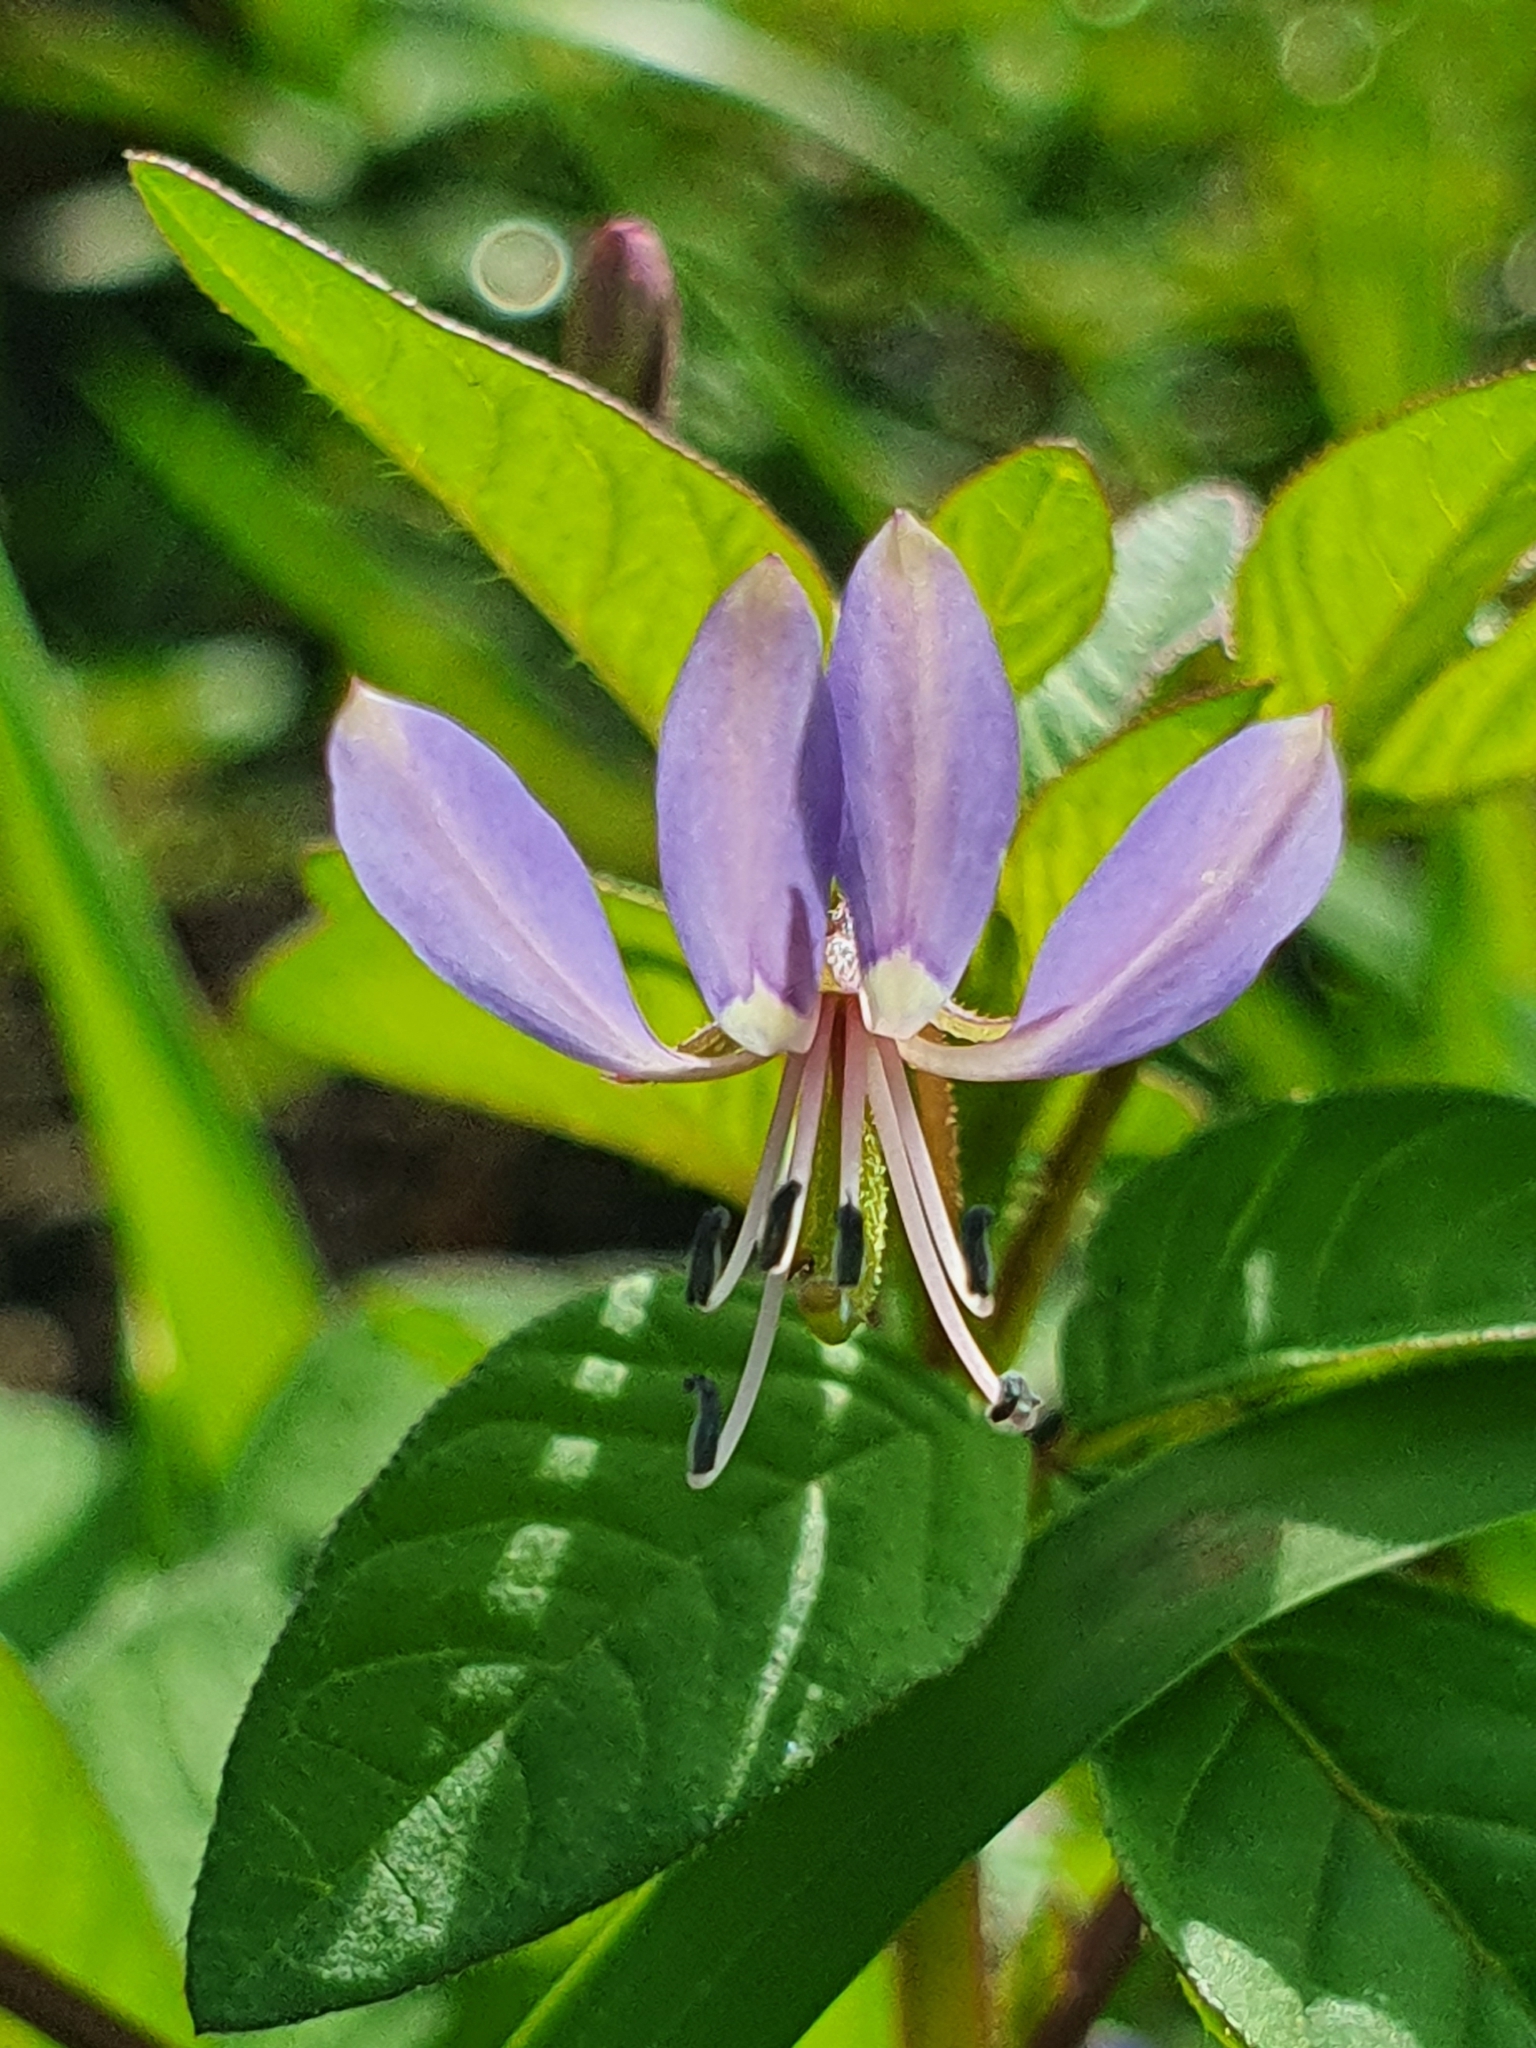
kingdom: Plantae
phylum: Tracheophyta
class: Magnoliopsida
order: Brassicales
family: Cleomaceae
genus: Sieruela
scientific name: Sieruela rutidosperma
